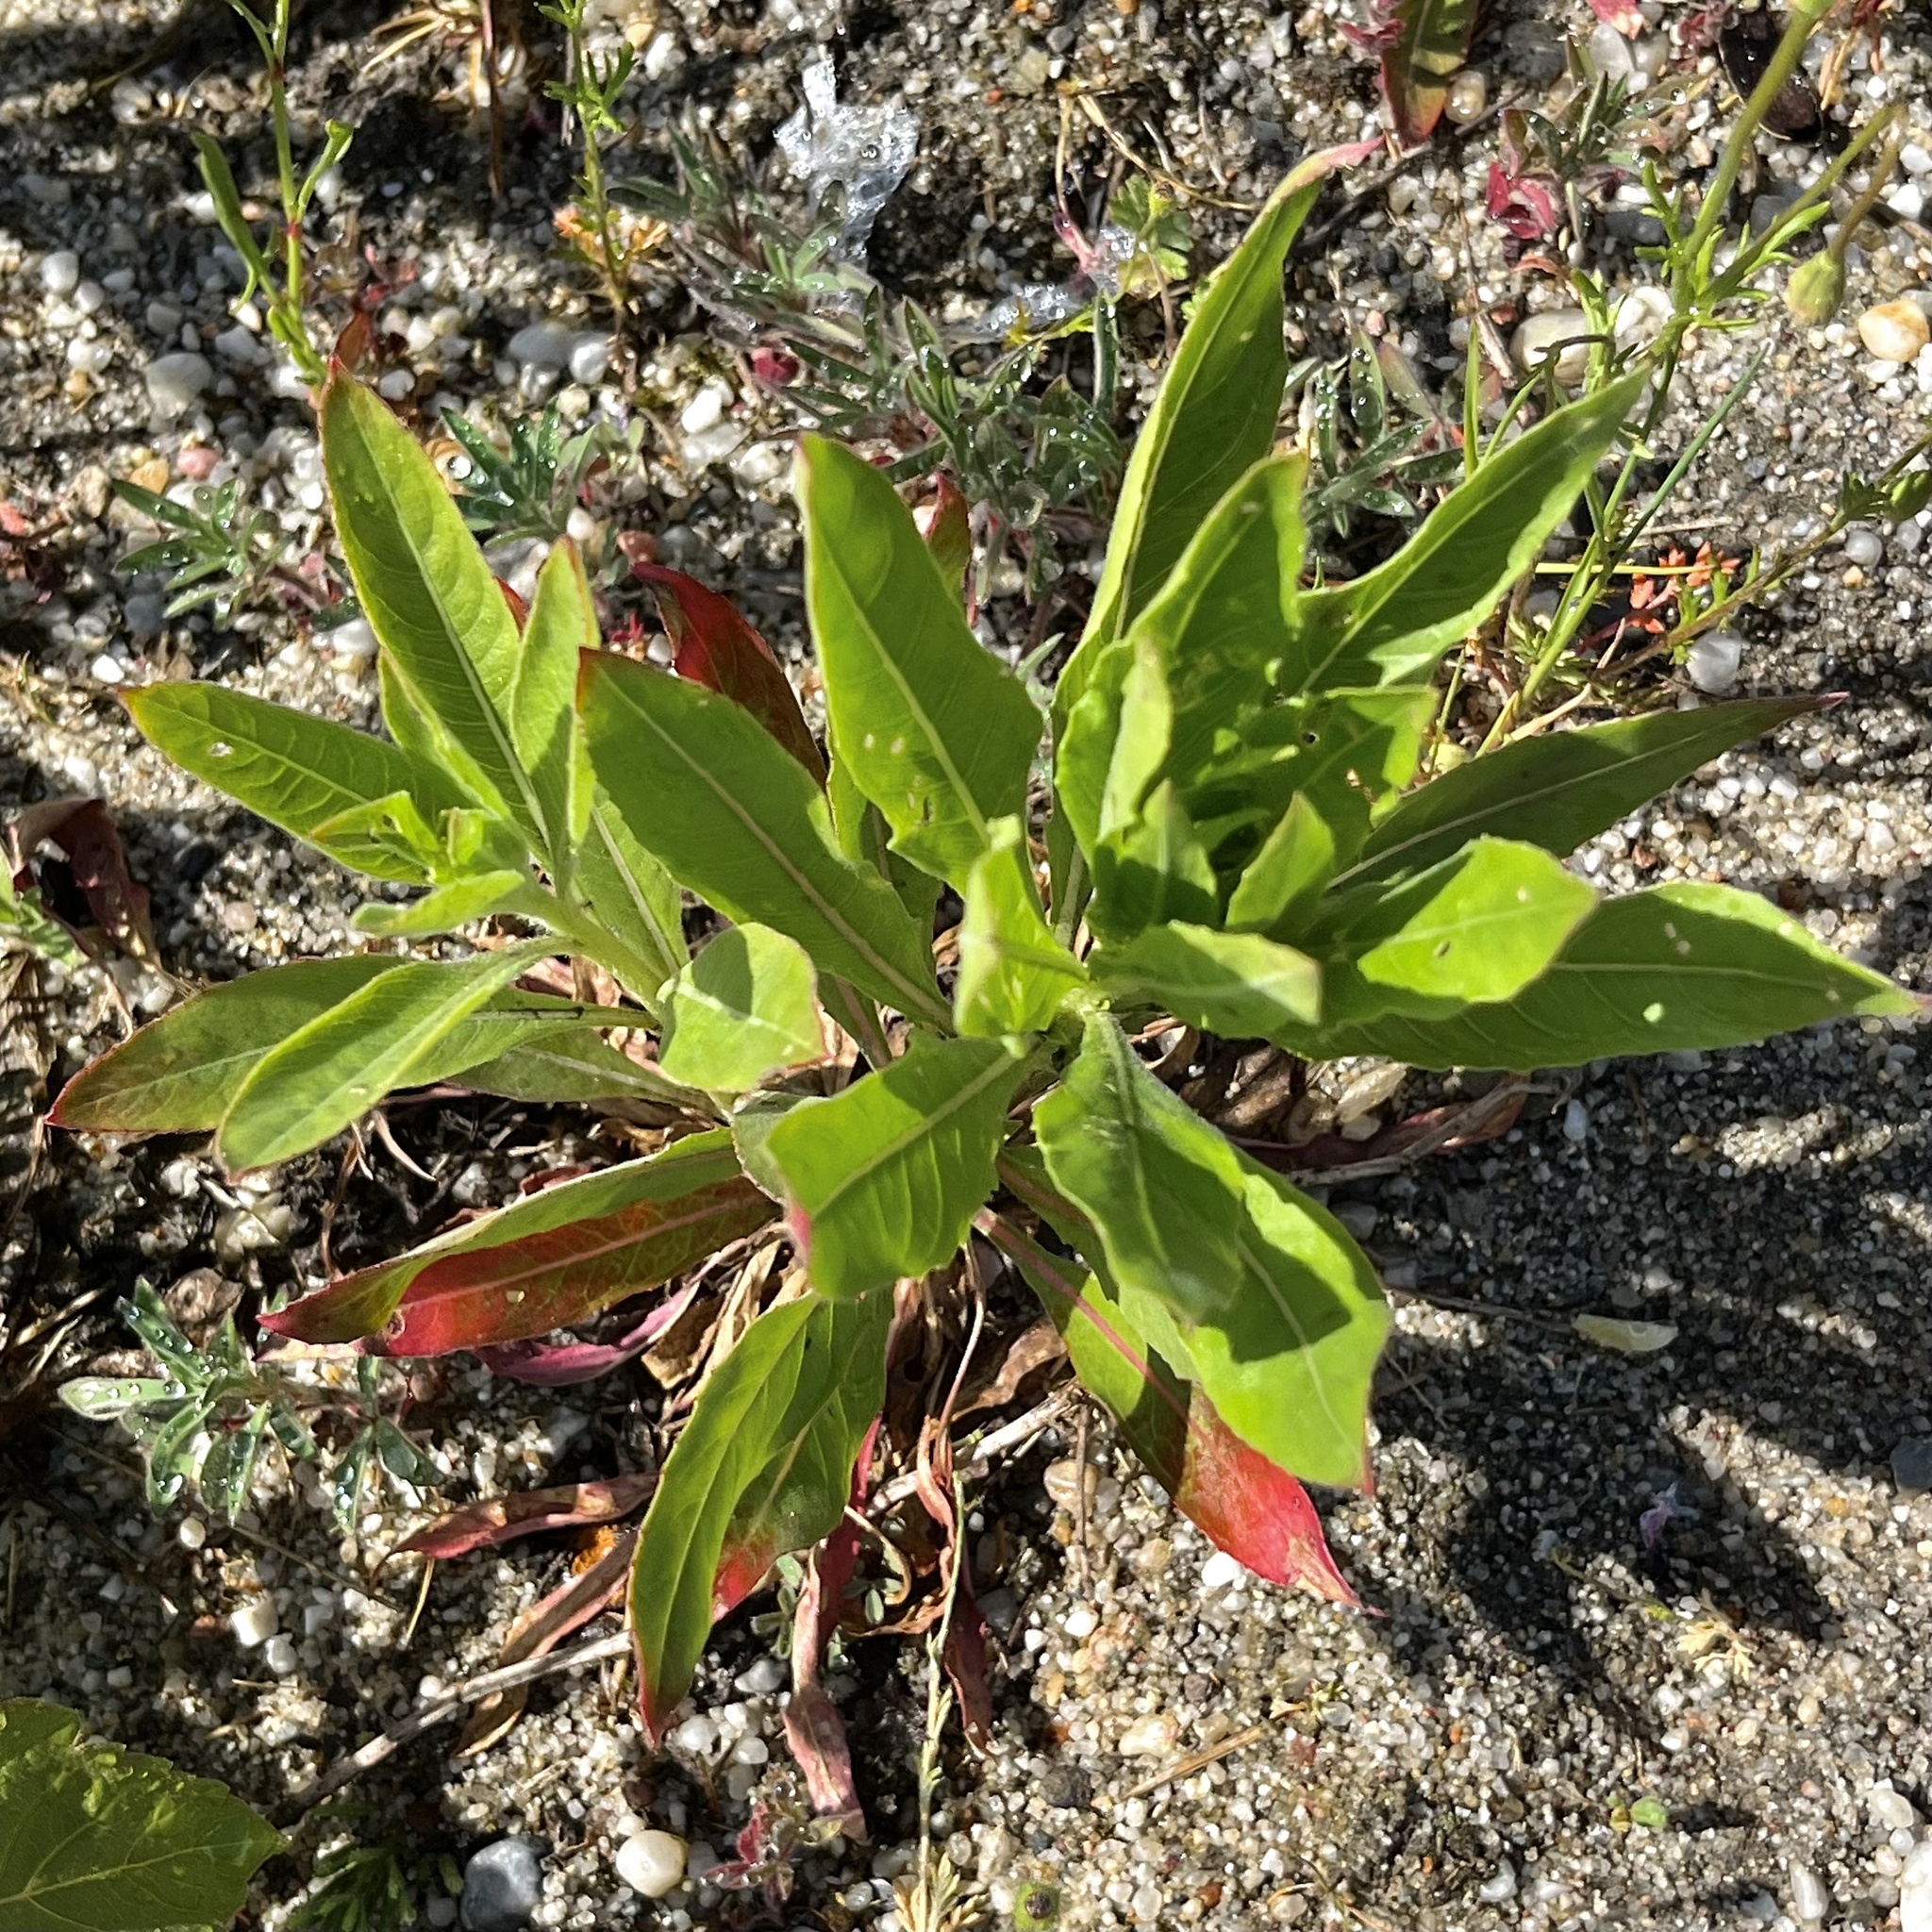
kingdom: Plantae
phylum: Tracheophyta
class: Magnoliopsida
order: Myrtales
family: Onagraceae
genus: Oenothera
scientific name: Oenothera biennis
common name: Common evening-primrose
